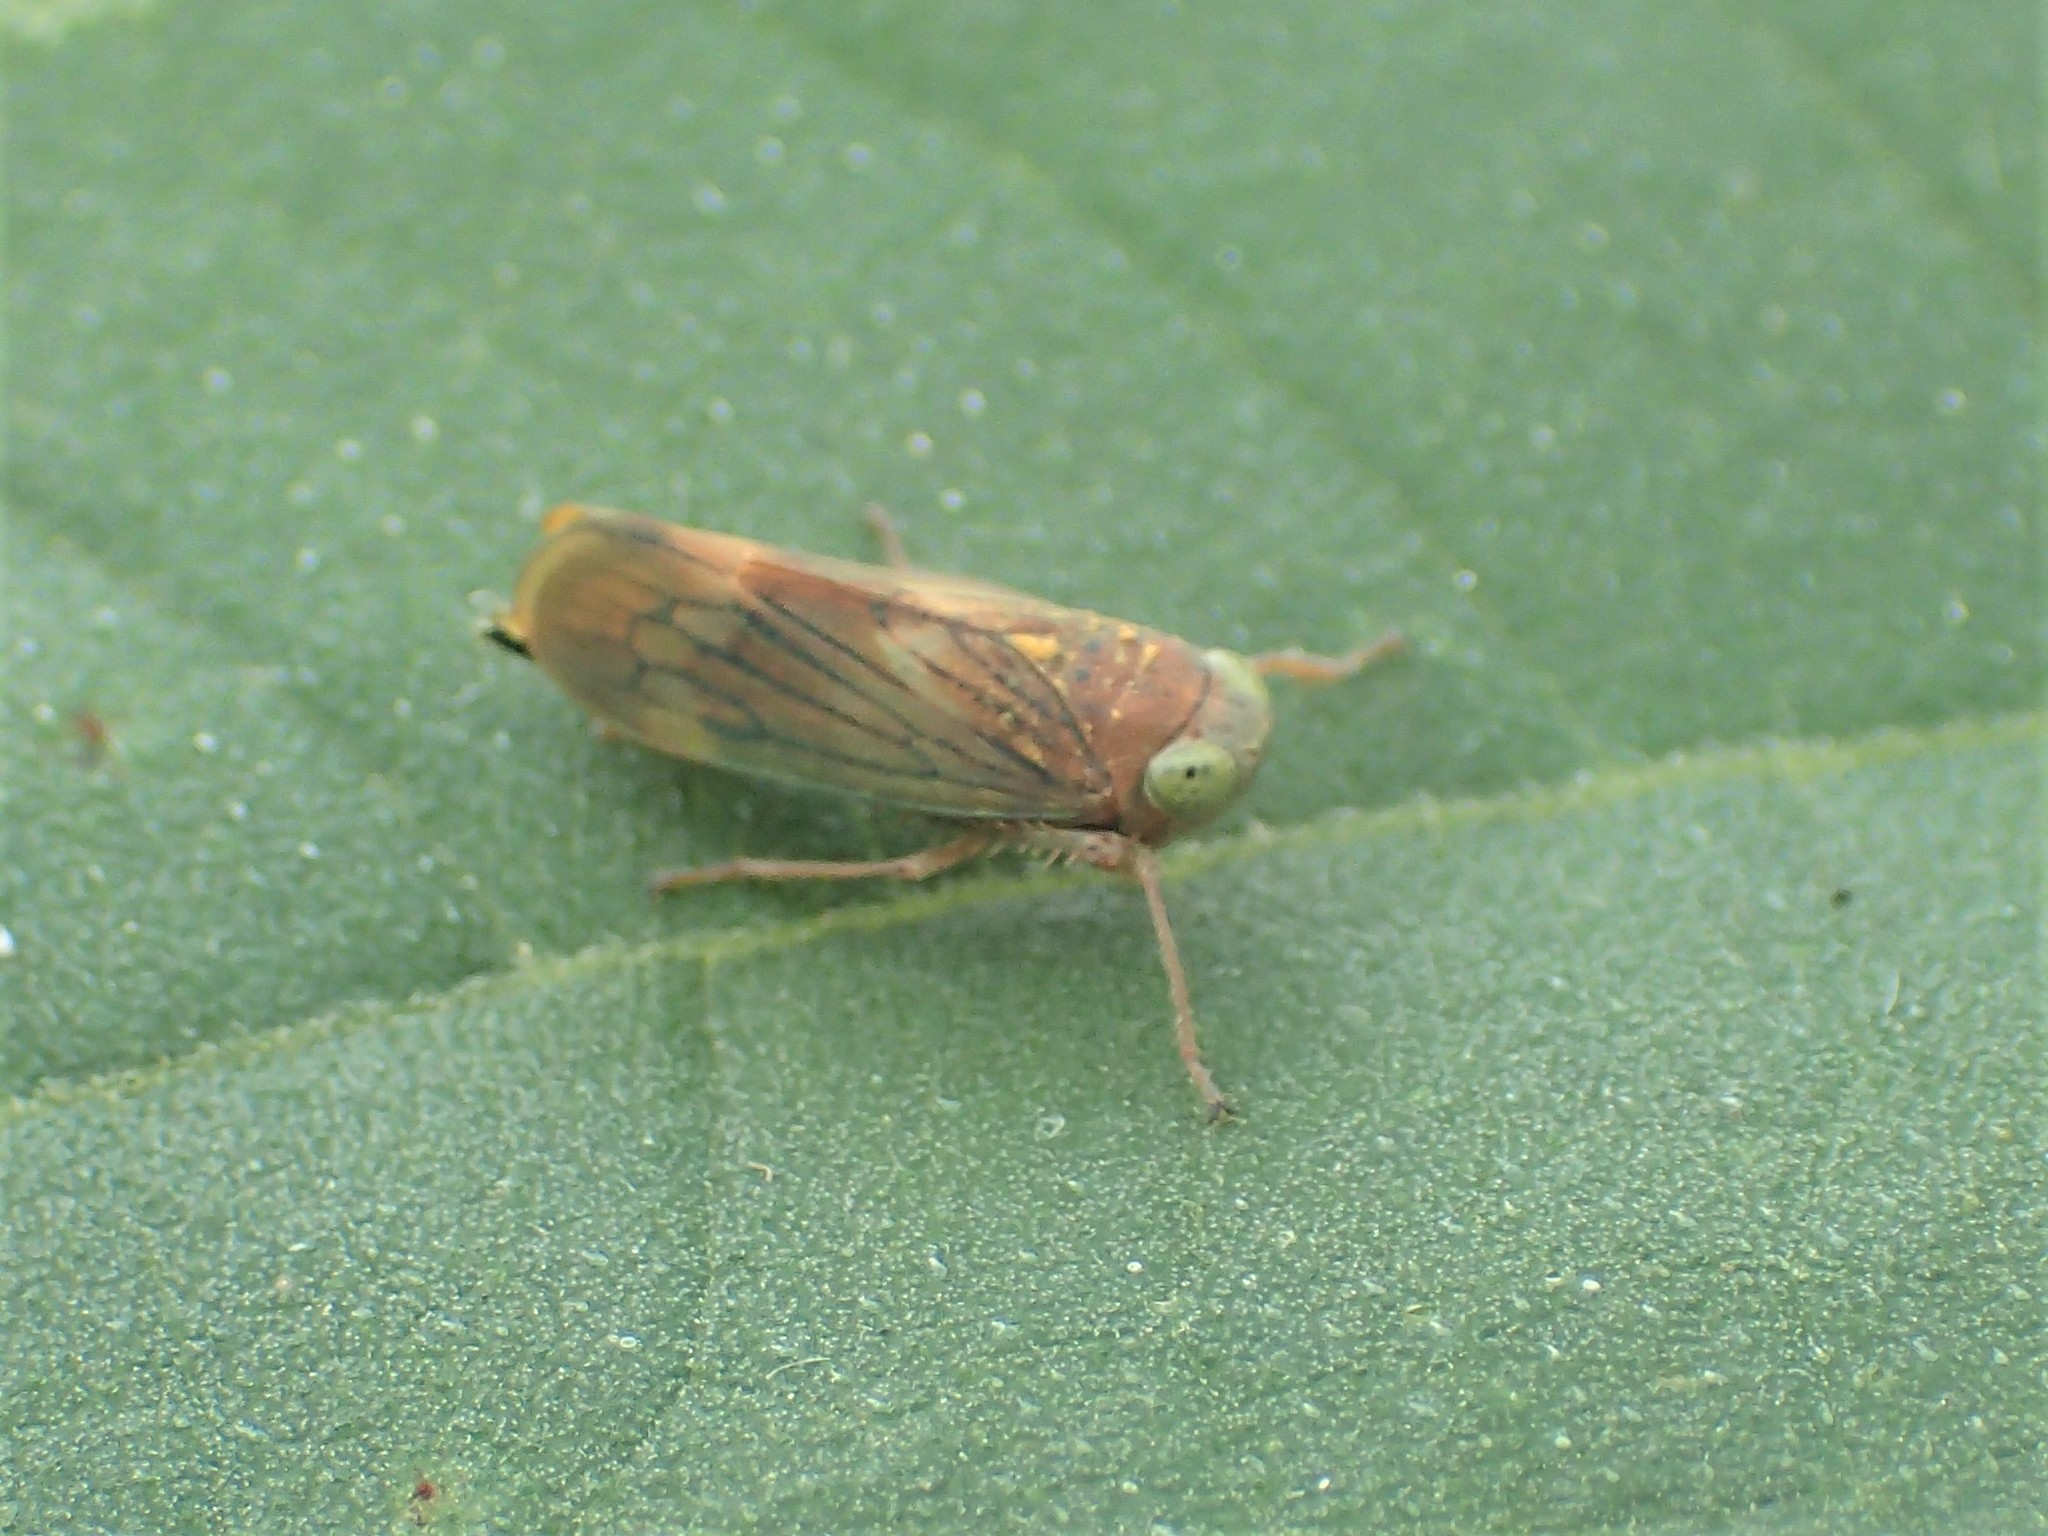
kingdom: Animalia
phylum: Arthropoda
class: Insecta
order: Hemiptera
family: Cicadellidae
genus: Jikradia
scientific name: Jikradia olitoria
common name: Coppery leafhopper
